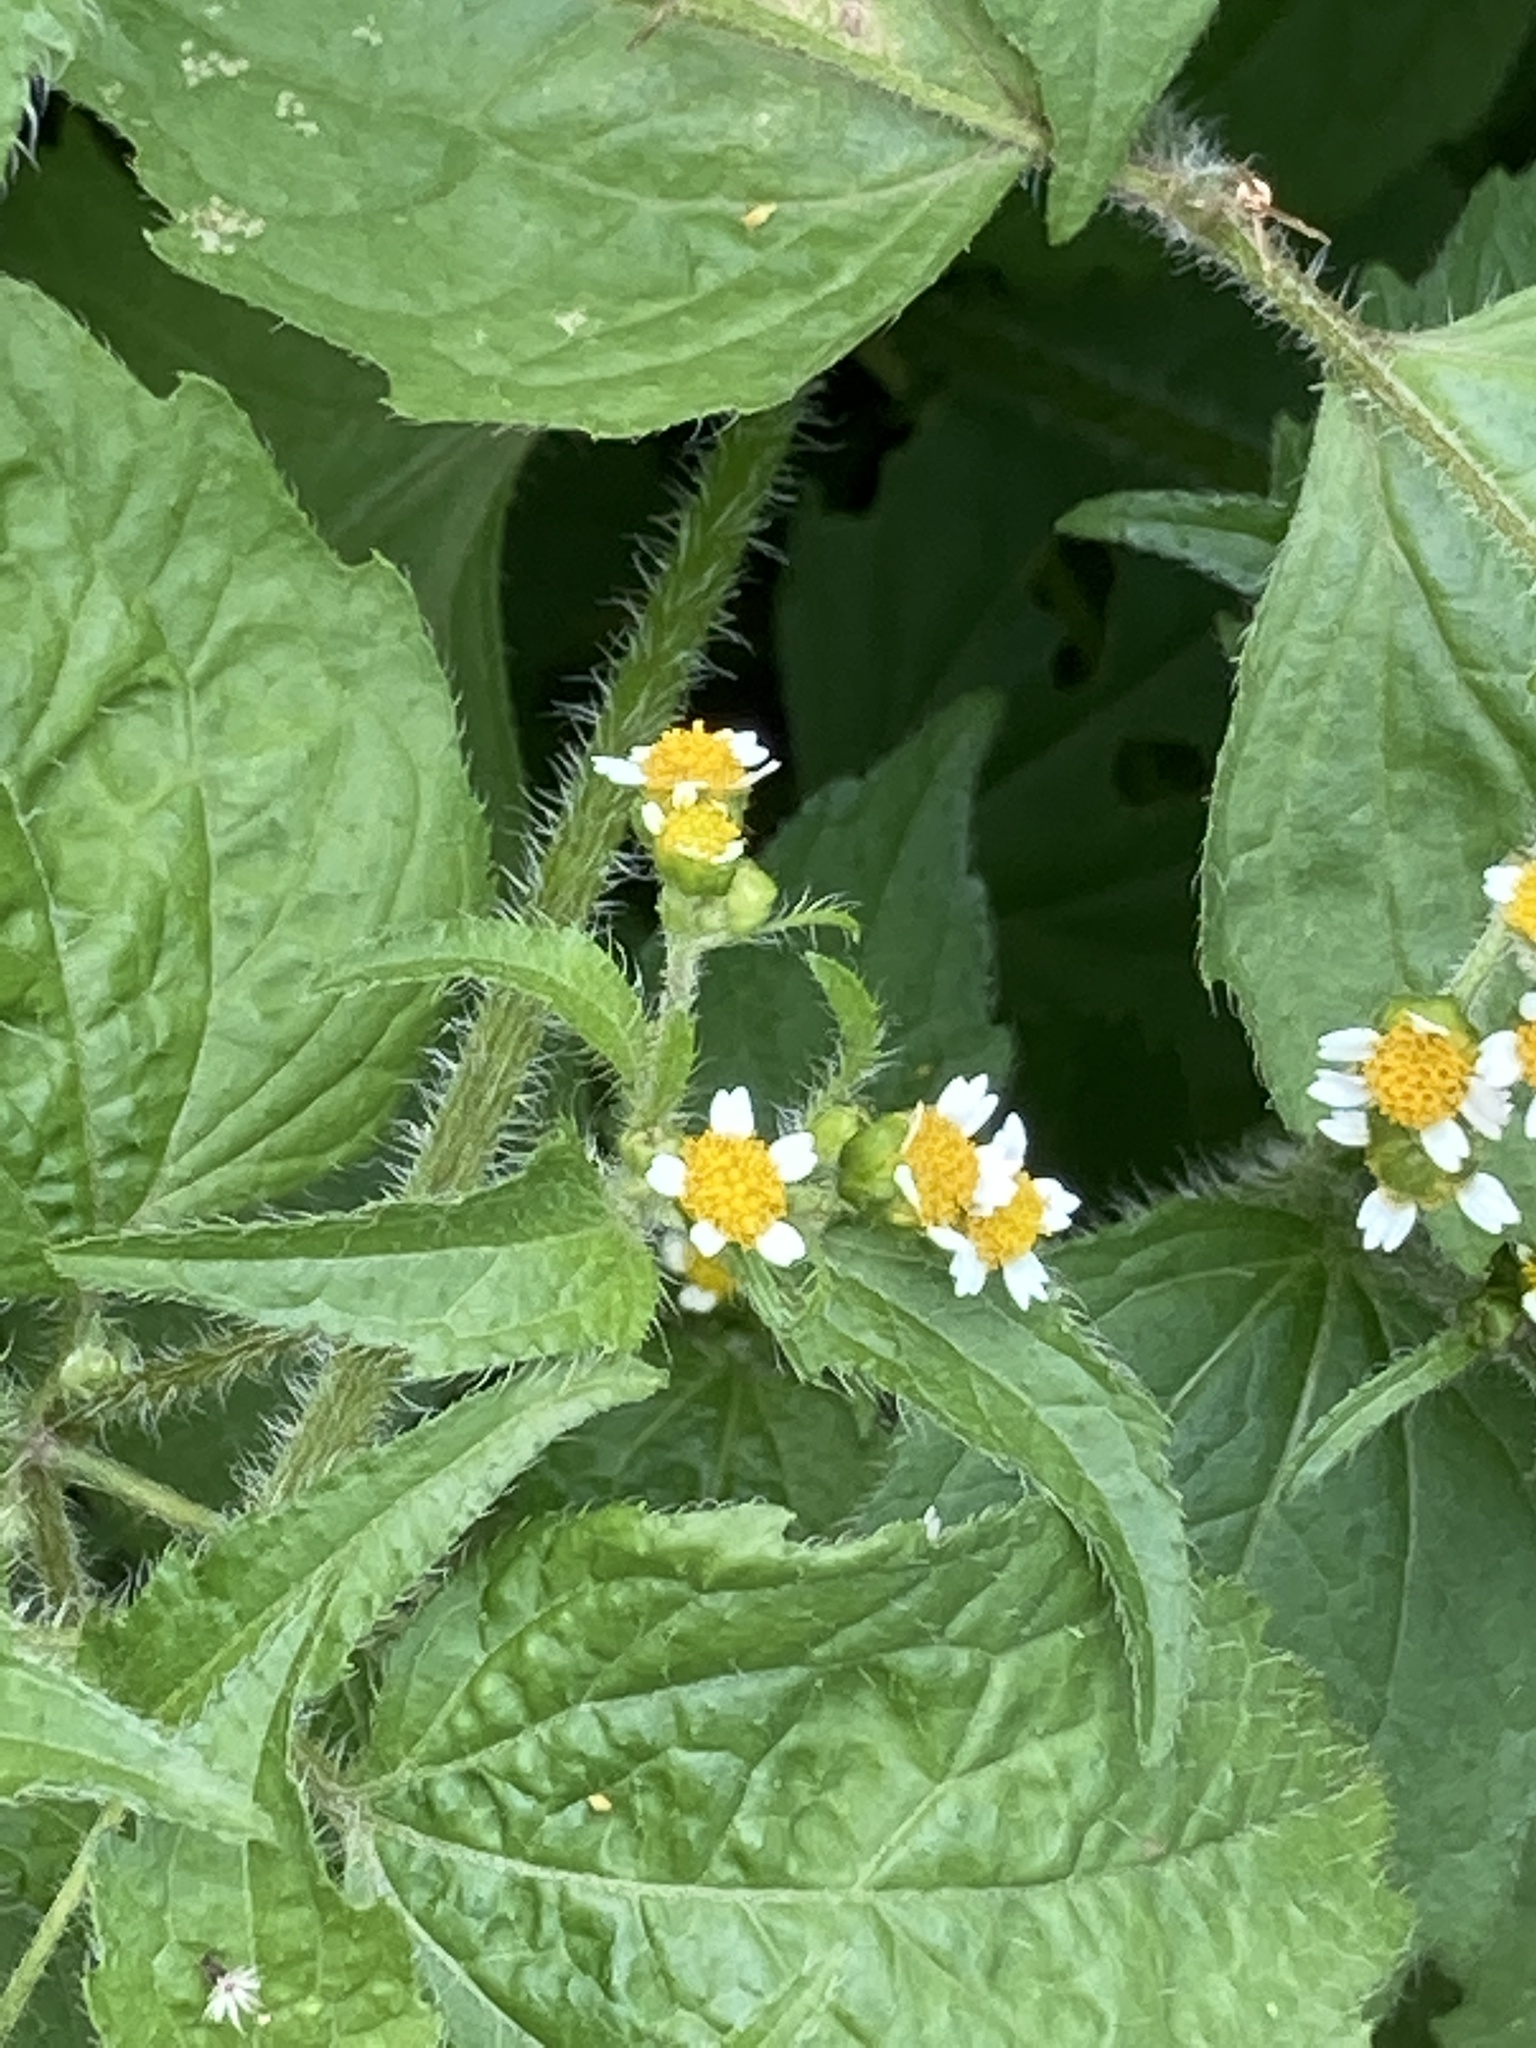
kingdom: Plantae
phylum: Tracheophyta
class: Magnoliopsida
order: Asterales
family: Asteraceae
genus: Galinsoga
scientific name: Galinsoga quadriradiata
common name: Shaggy soldier
